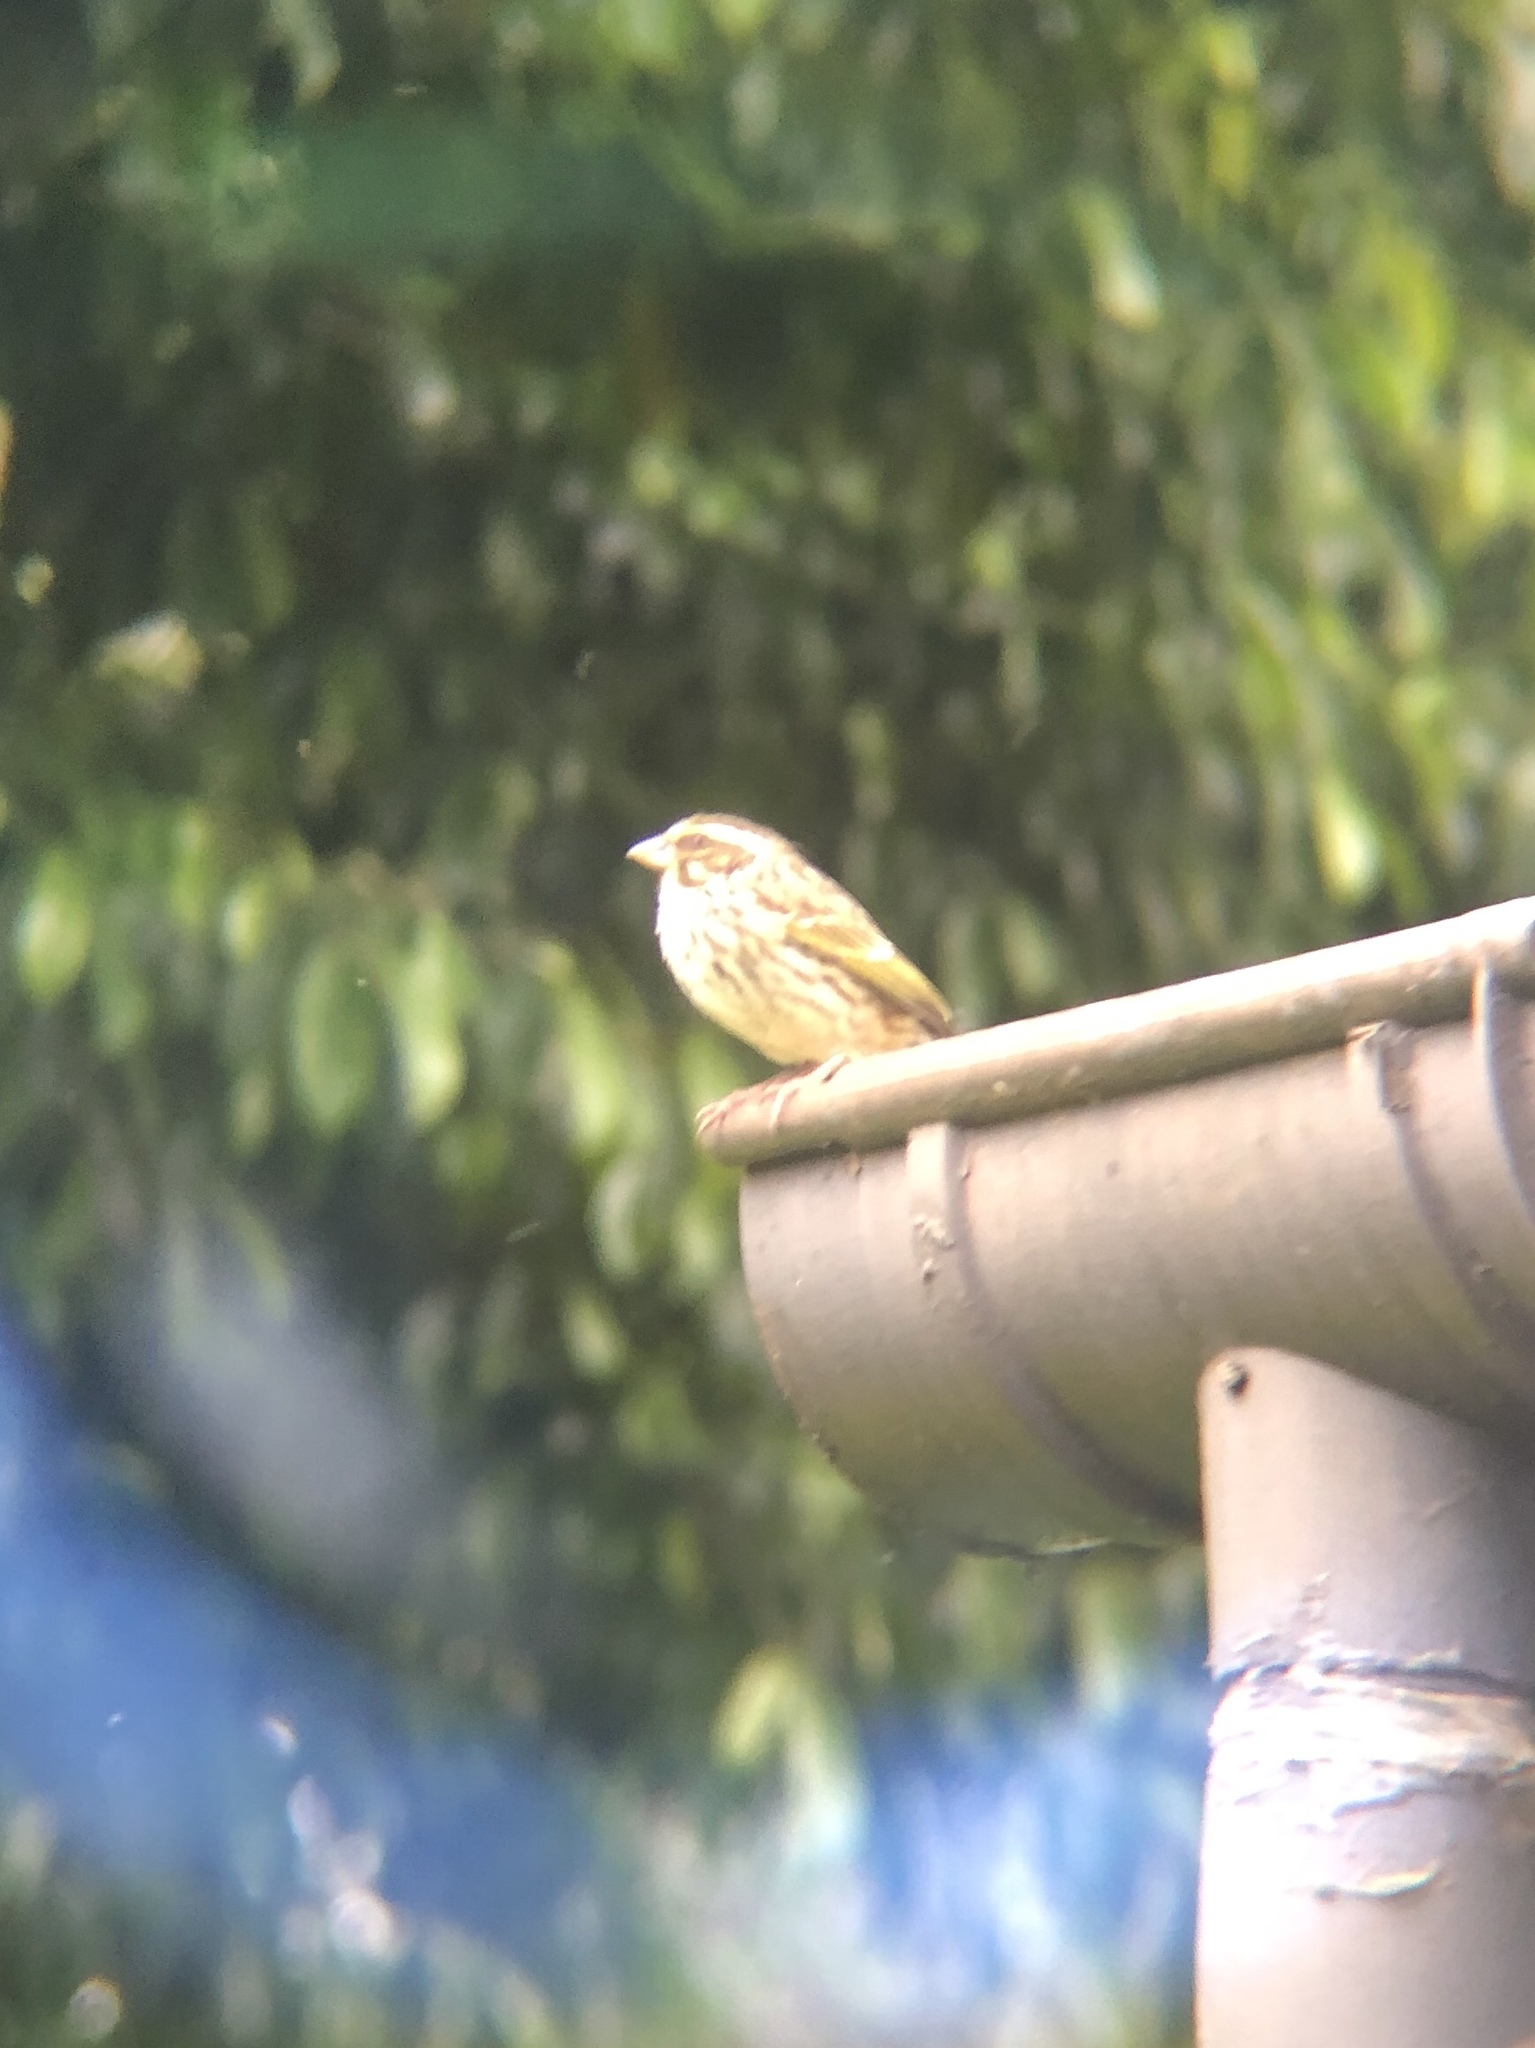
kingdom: Animalia
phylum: Chordata
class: Aves
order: Passeriformes
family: Fringillidae
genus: Crithagra
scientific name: Crithagra striolata
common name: Streaky seedeater
